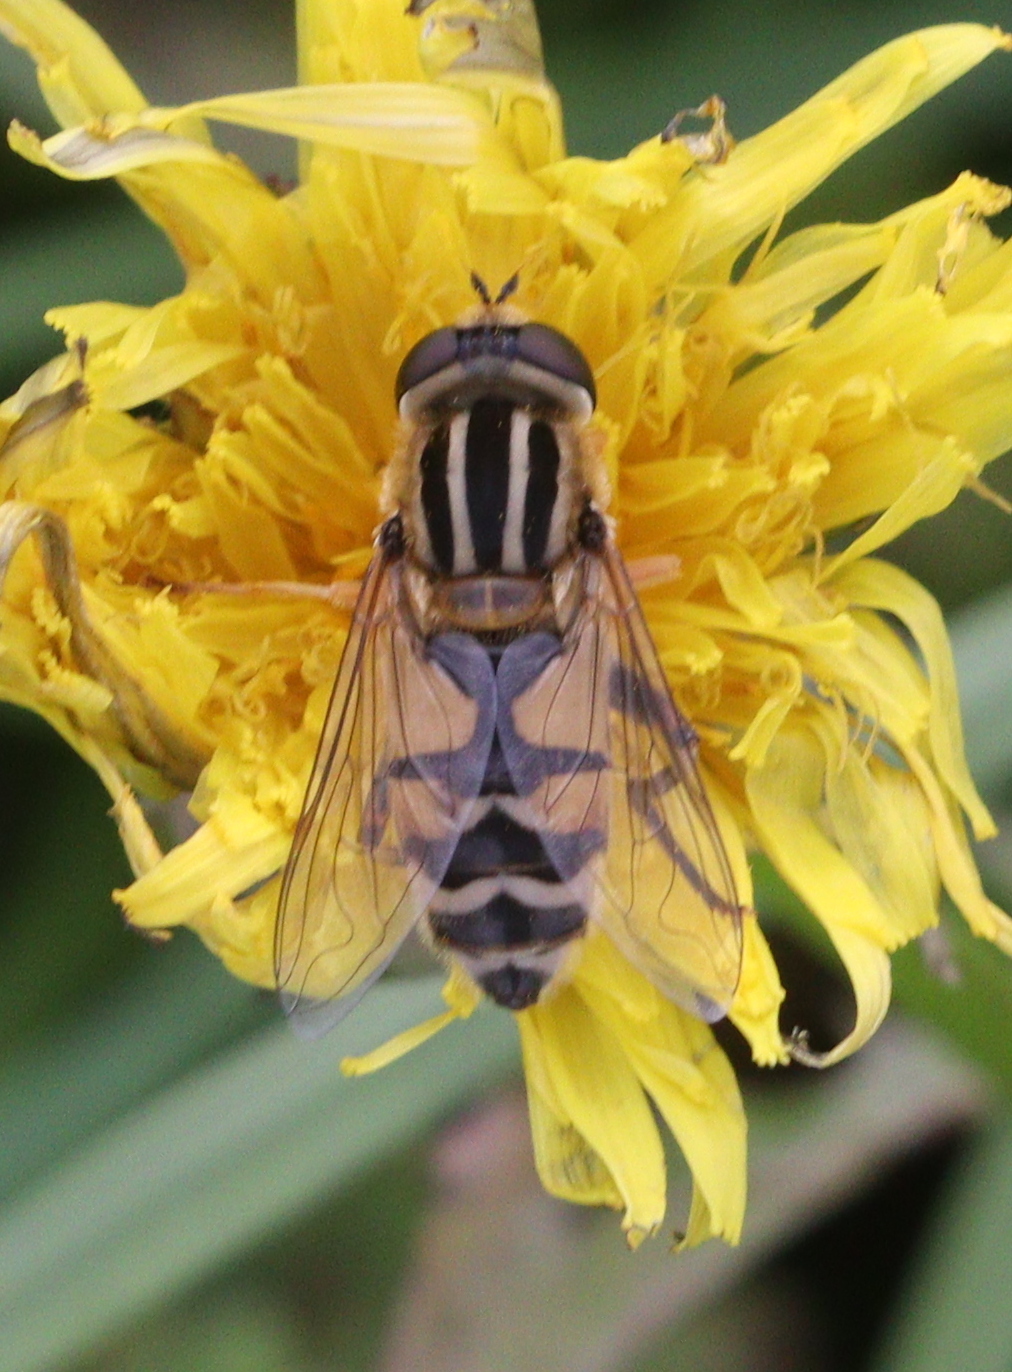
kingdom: Animalia
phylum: Arthropoda
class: Insecta
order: Diptera
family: Syrphidae
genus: Helophilus
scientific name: Helophilus trivittatus
